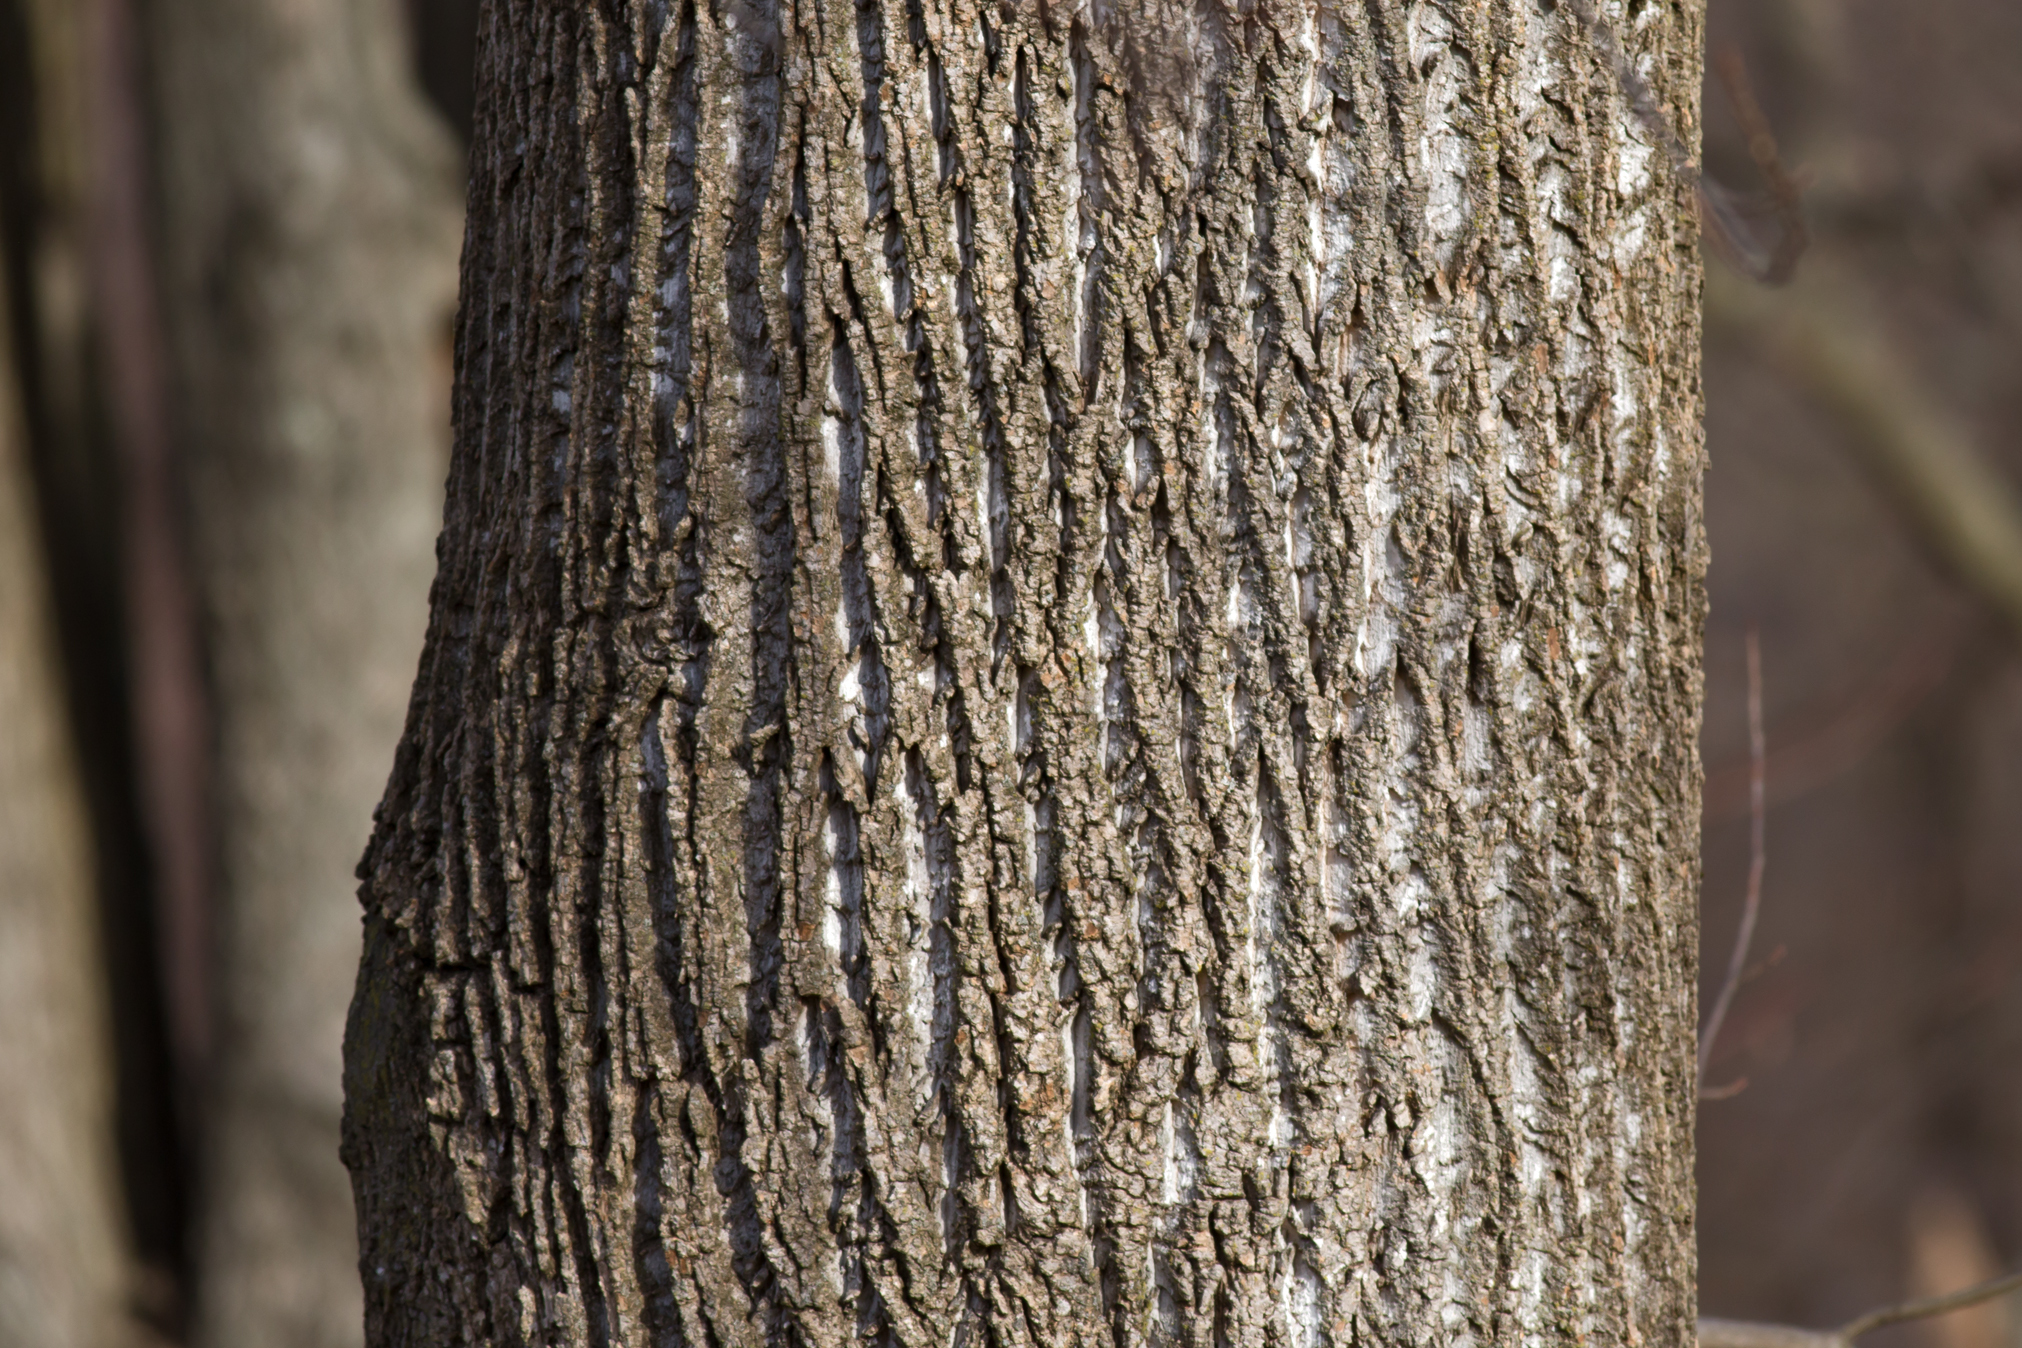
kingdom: Plantae
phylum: Tracheophyta
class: Magnoliopsida
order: Magnoliales
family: Magnoliaceae
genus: Liriodendron
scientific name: Liriodendron tulipifera
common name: Tulip tree
